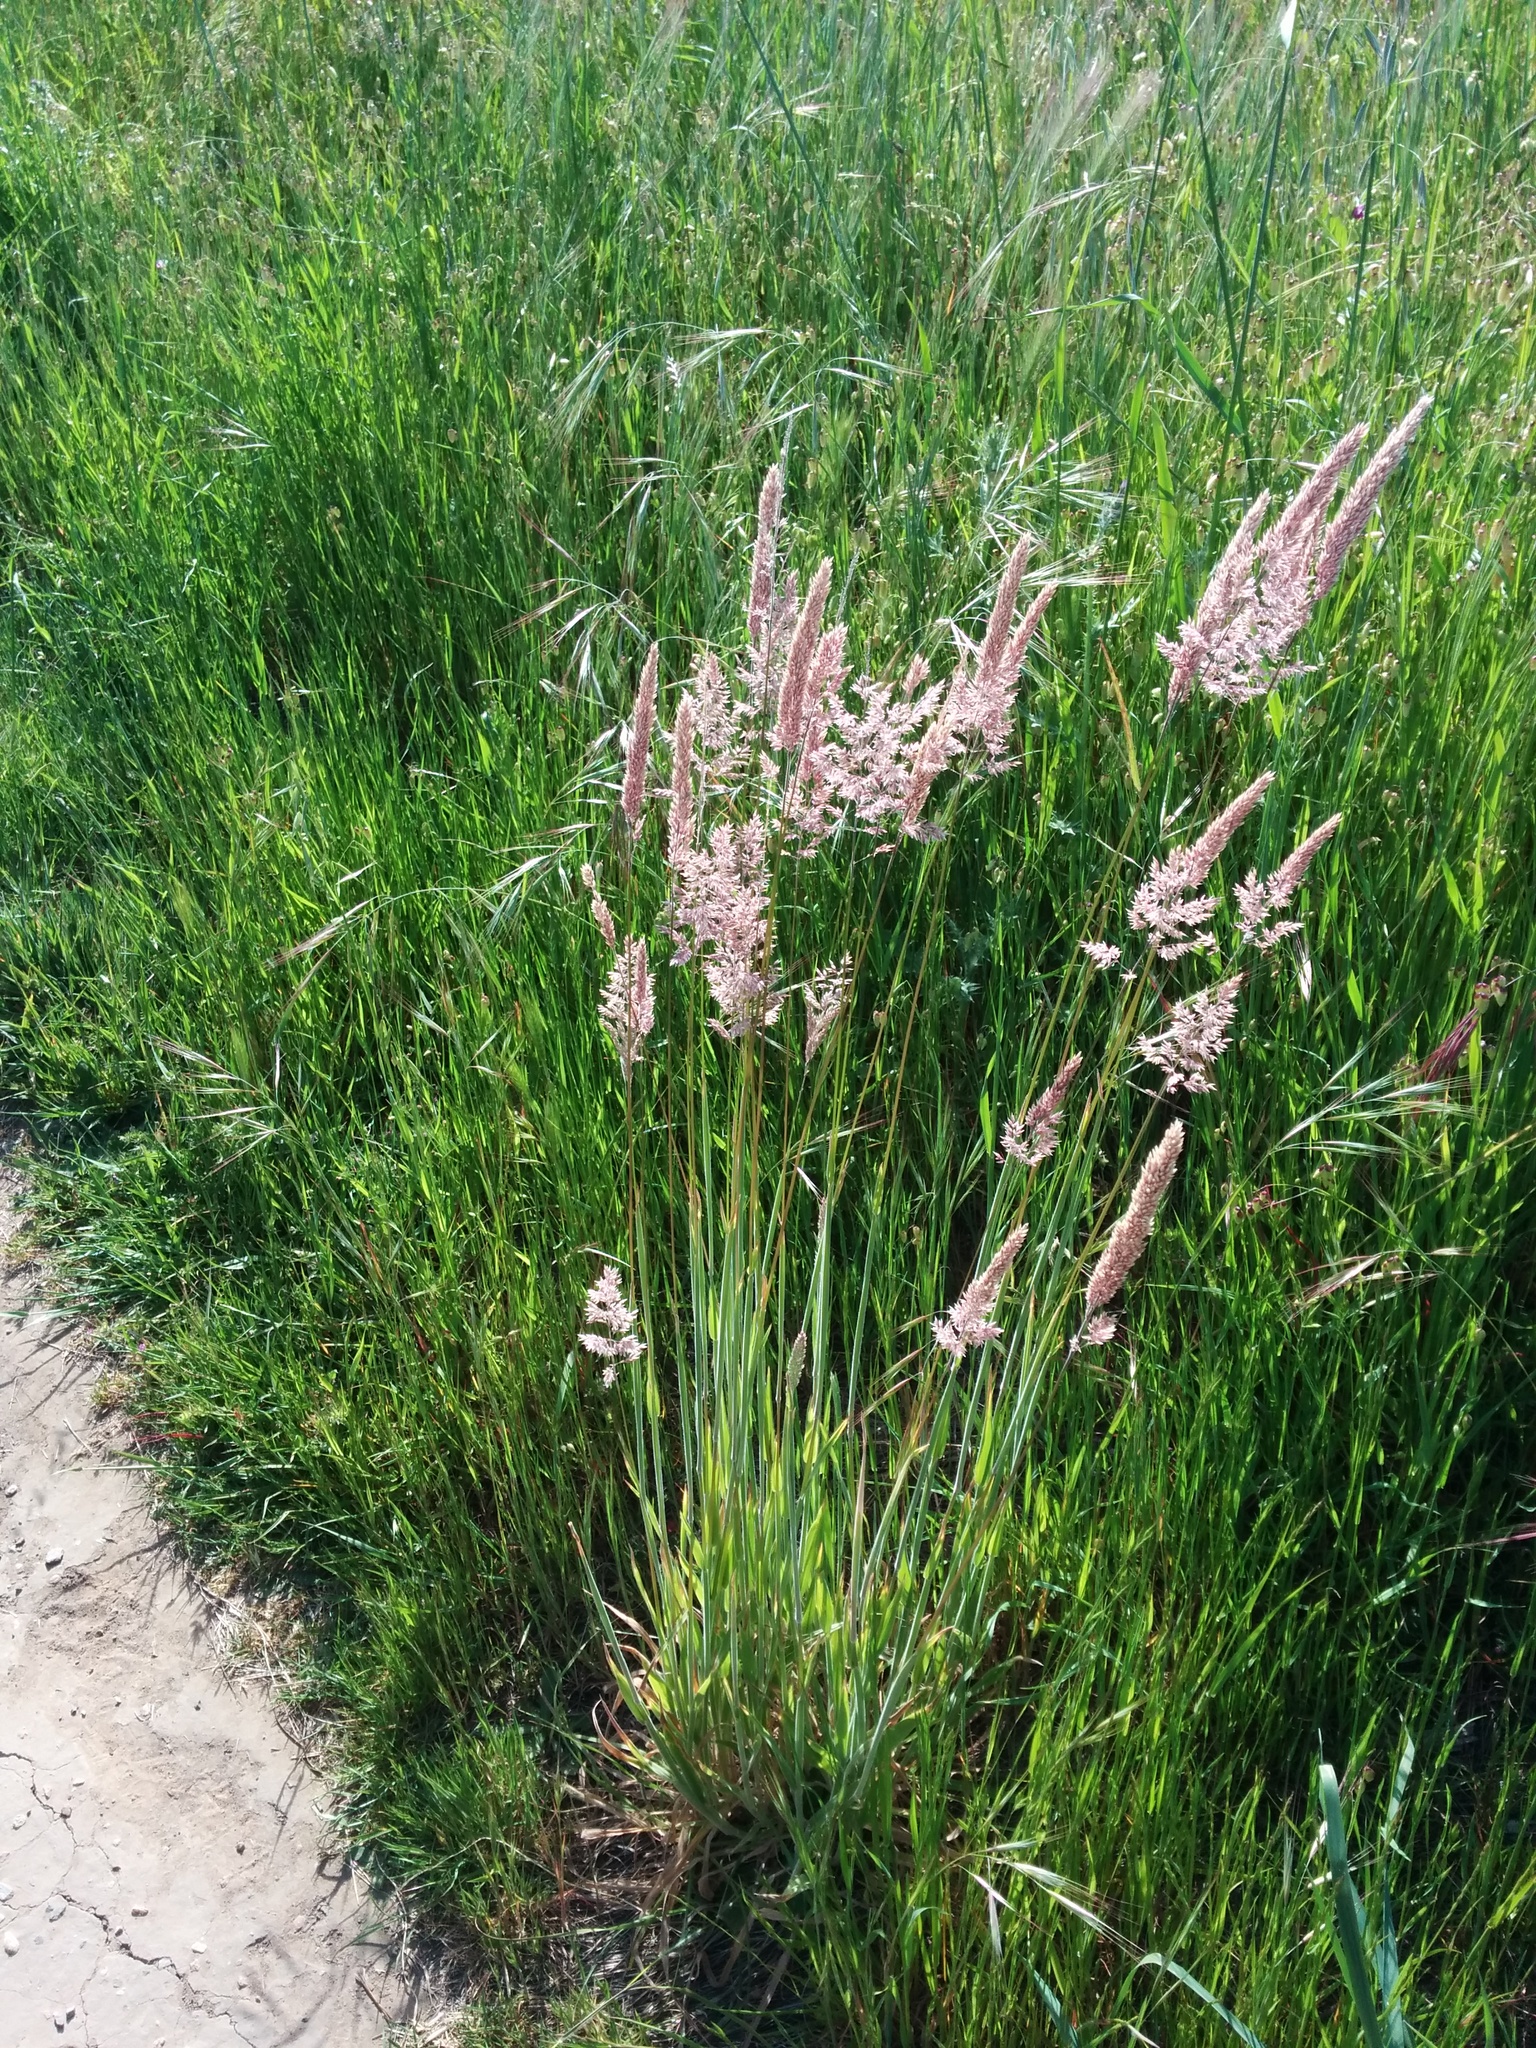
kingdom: Plantae
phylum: Tracheophyta
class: Liliopsida
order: Poales
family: Poaceae
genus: Holcus
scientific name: Holcus lanatus
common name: Yorkshire-fog
